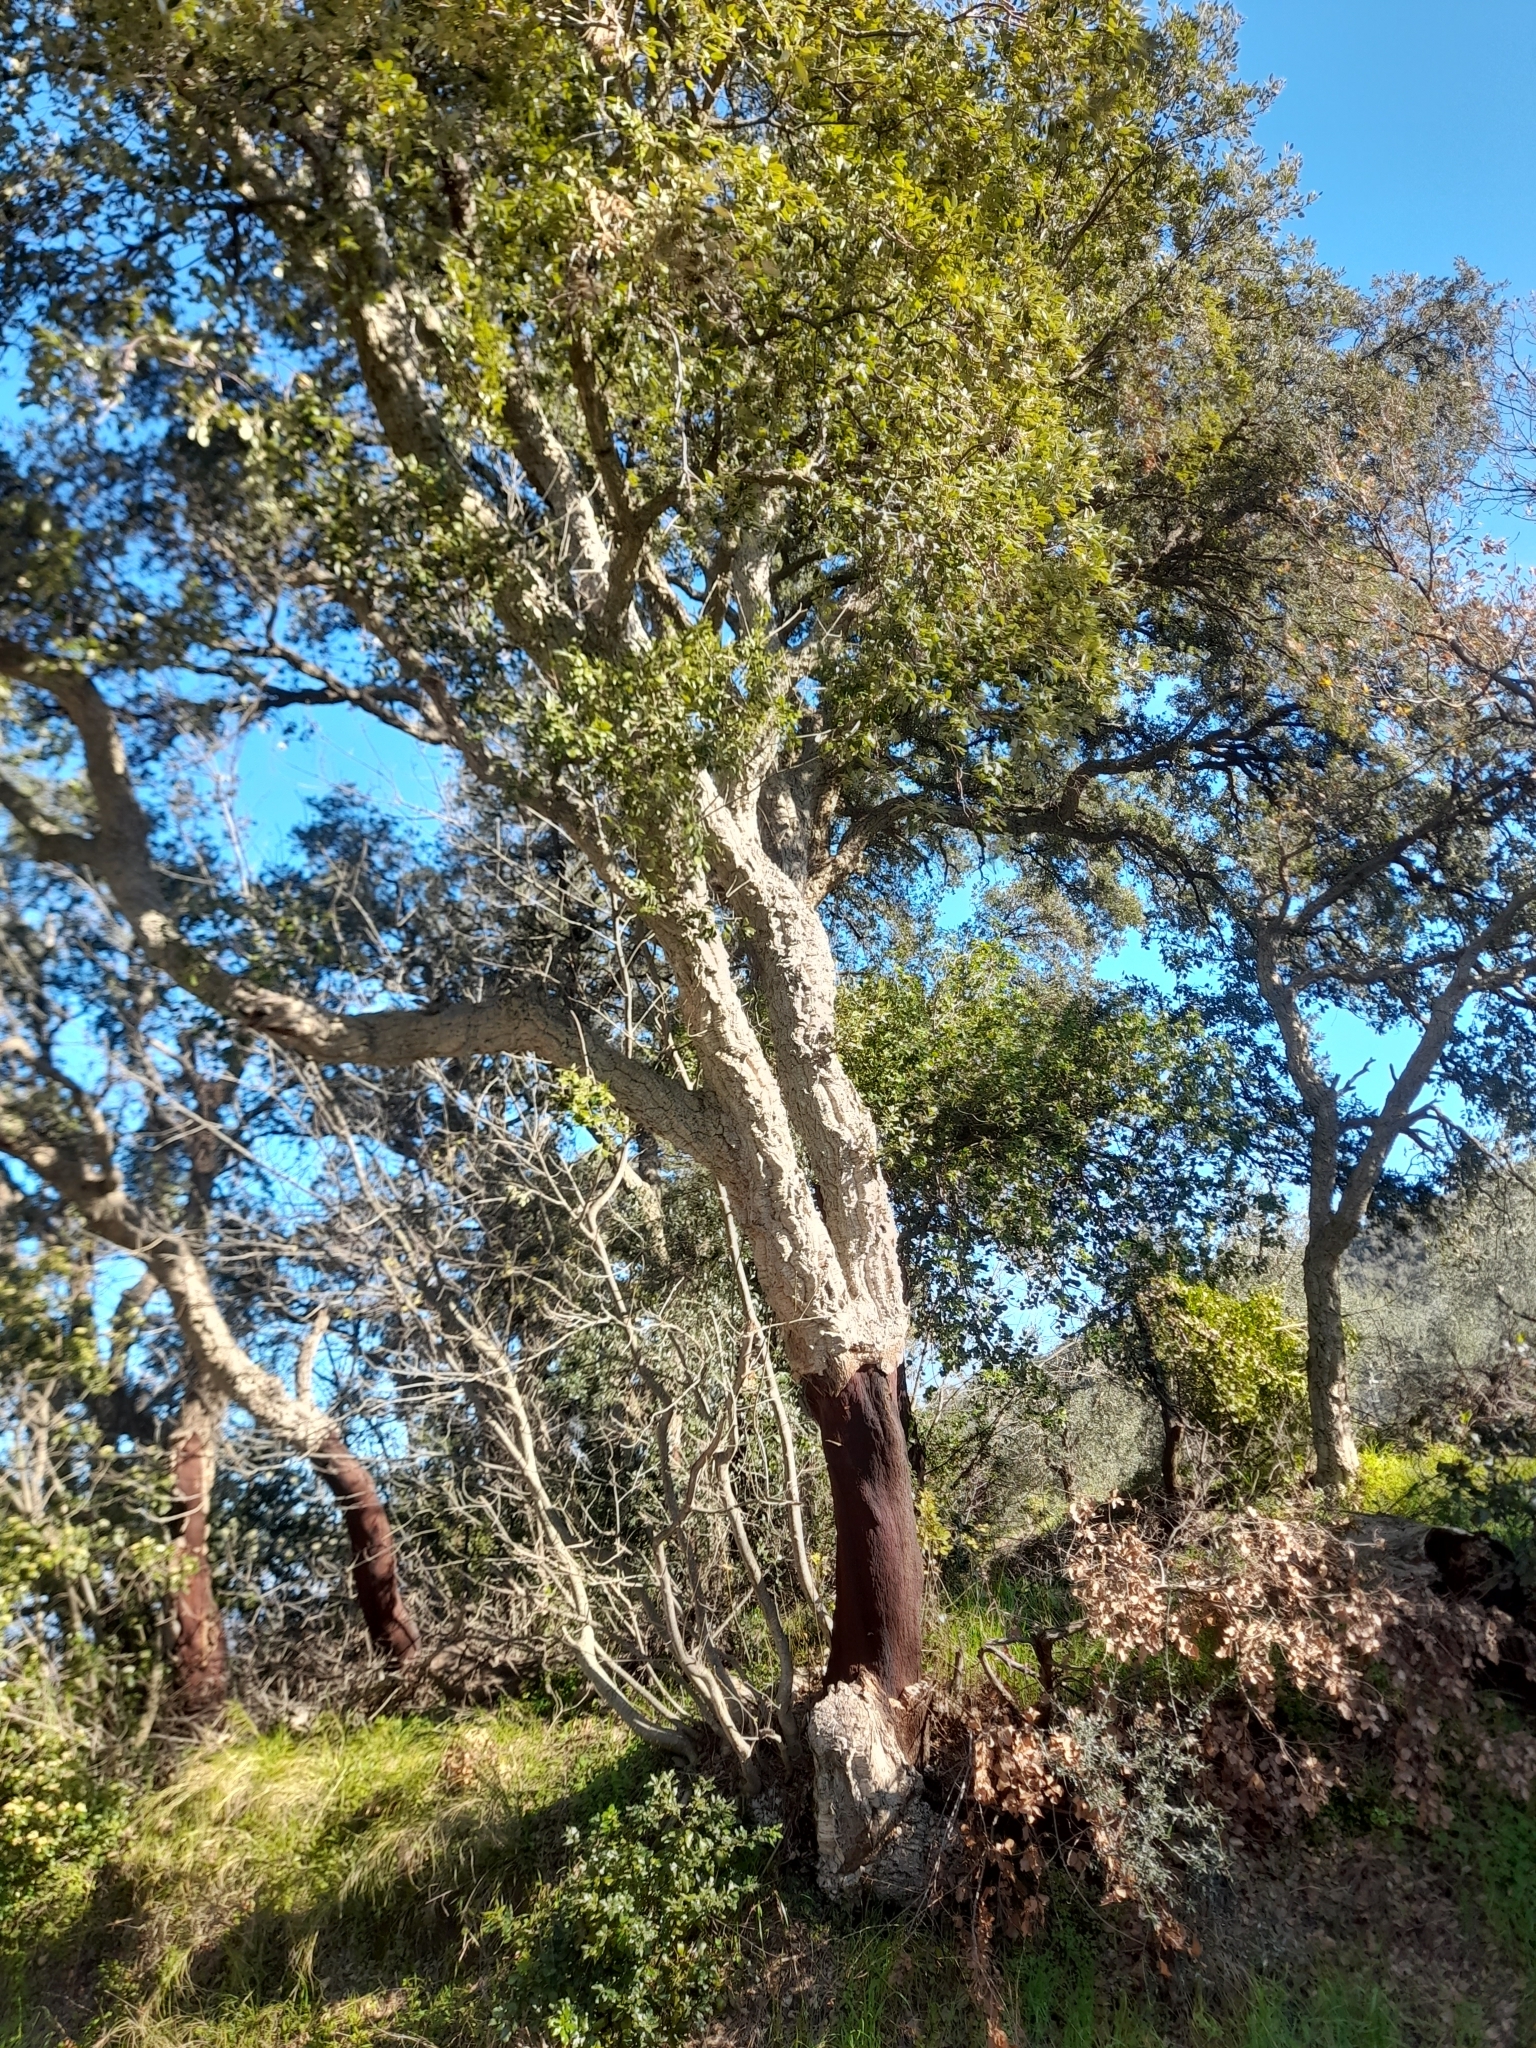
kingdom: Plantae
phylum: Tracheophyta
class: Magnoliopsida
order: Fagales
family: Fagaceae
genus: Quercus
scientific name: Quercus suber
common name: Cork oak
